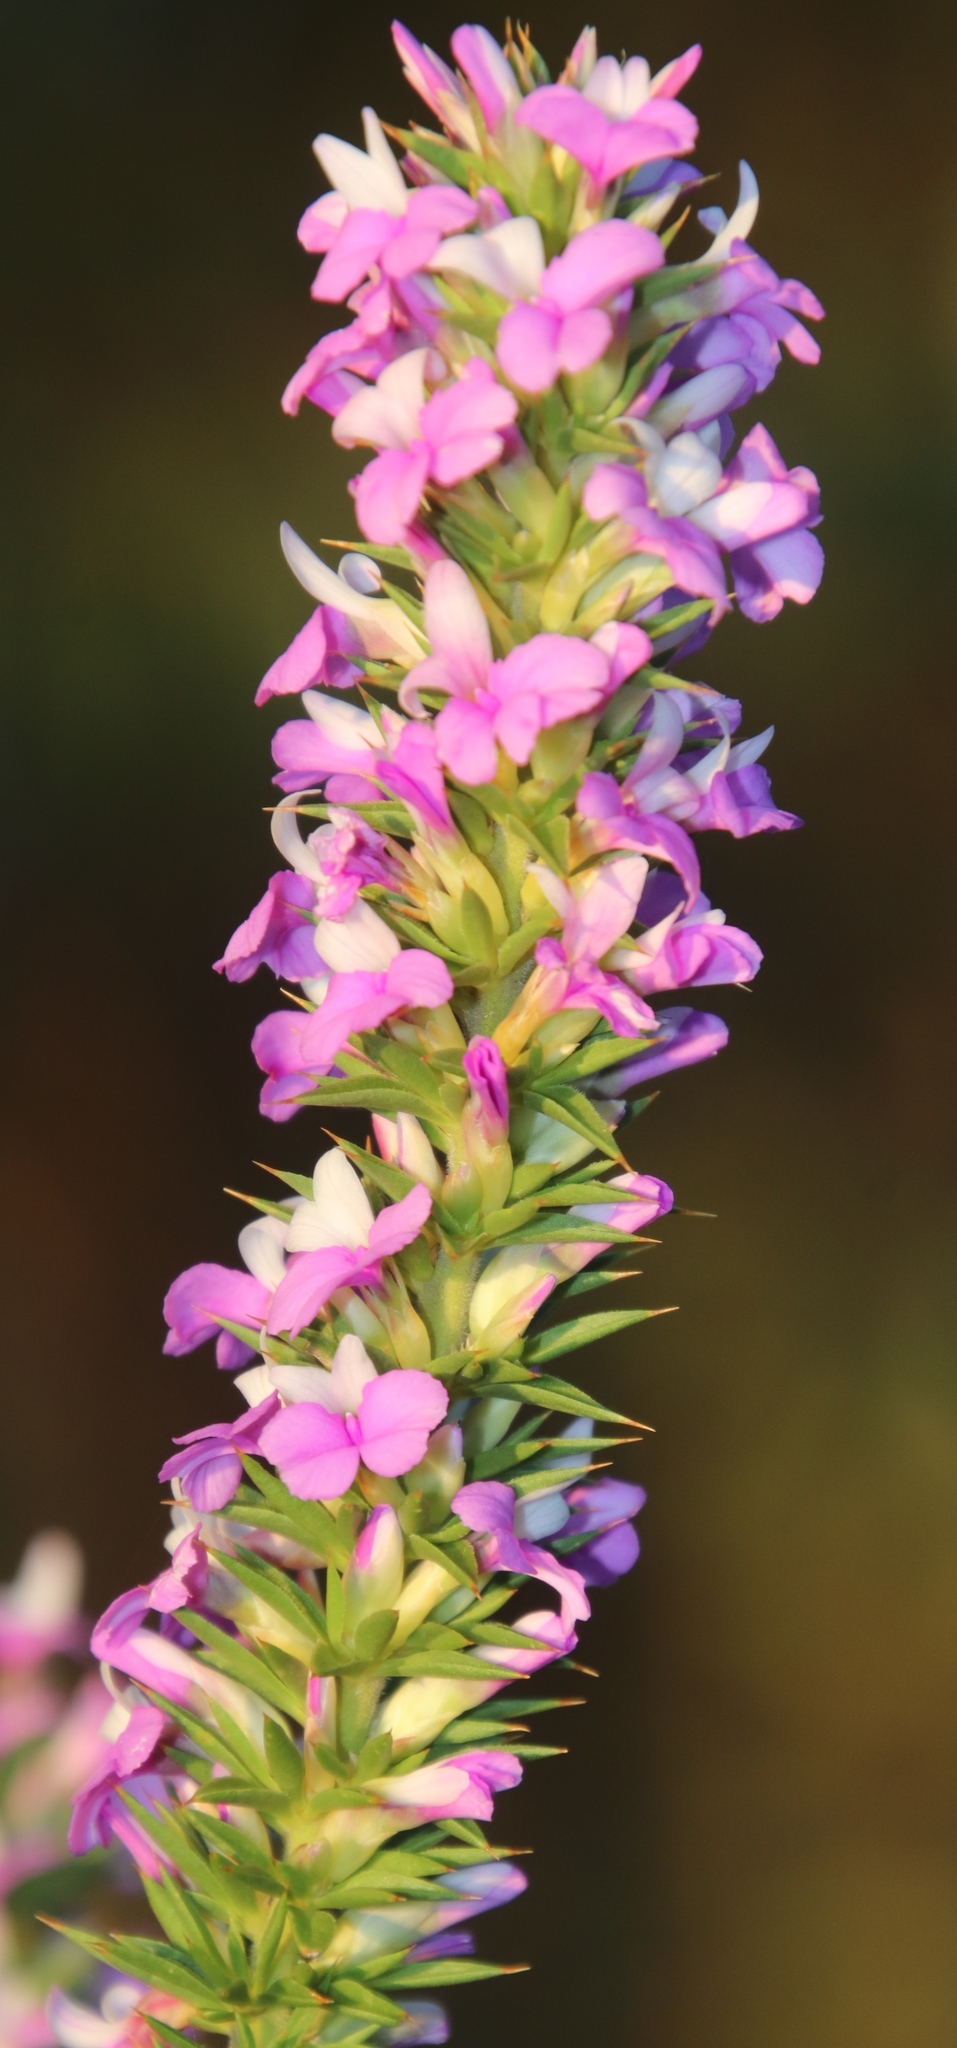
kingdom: Plantae
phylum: Tracheophyta
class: Magnoliopsida
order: Fabales
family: Polygalaceae
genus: Muraltia
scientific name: Muraltia heisteria
